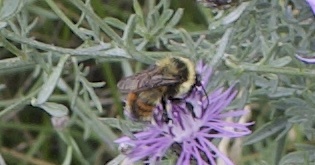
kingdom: Animalia
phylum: Arthropoda
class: Insecta
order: Hymenoptera
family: Apidae
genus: Bombus
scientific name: Bombus rufocinctus
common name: Red-belted bumble bee
